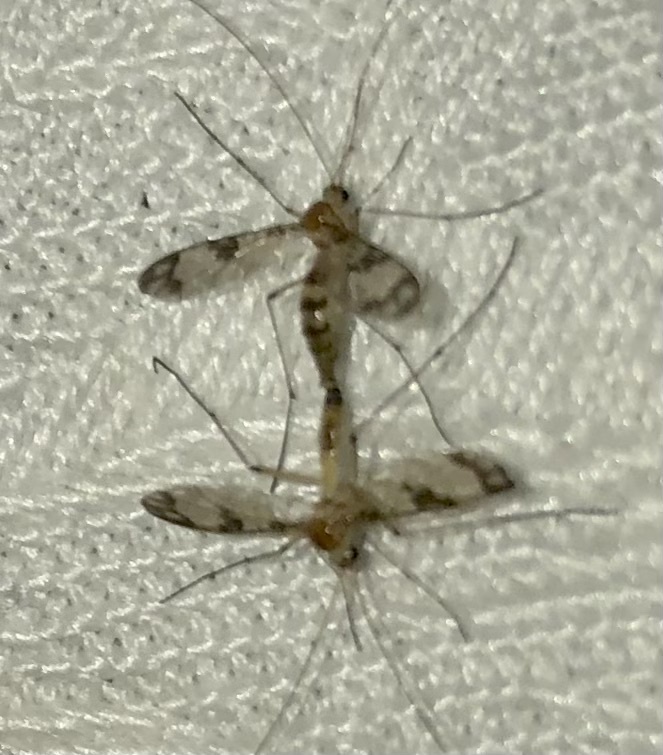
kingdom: Animalia
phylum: Arthropoda
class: Insecta
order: Diptera
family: Keroplatidae
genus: Macrocera
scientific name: Macrocera formosa
